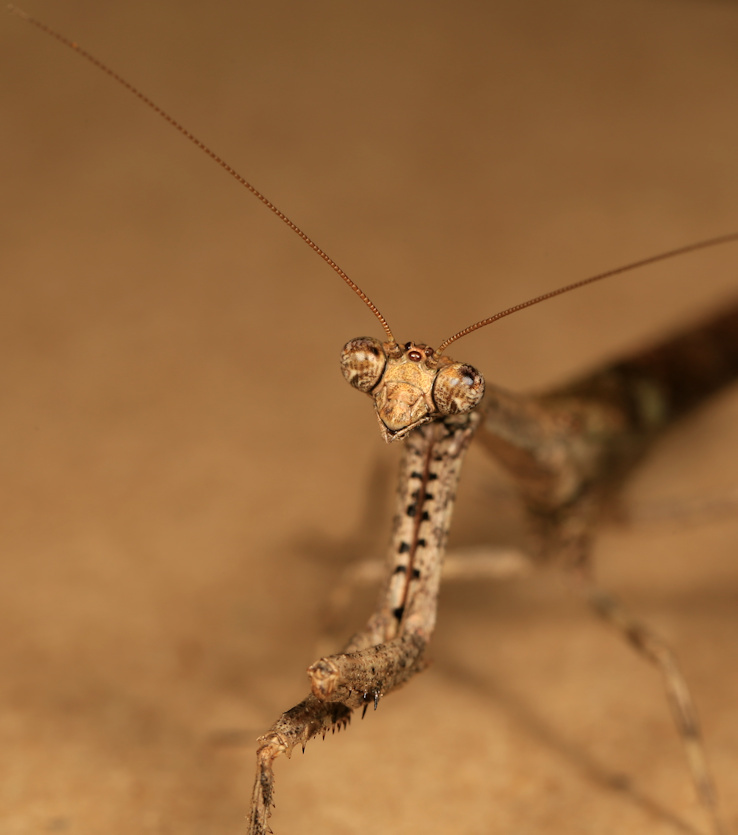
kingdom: Animalia
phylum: Arthropoda
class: Insecta
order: Mantodea
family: Deroplatyidae
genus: Popa
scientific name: Popa spurca
